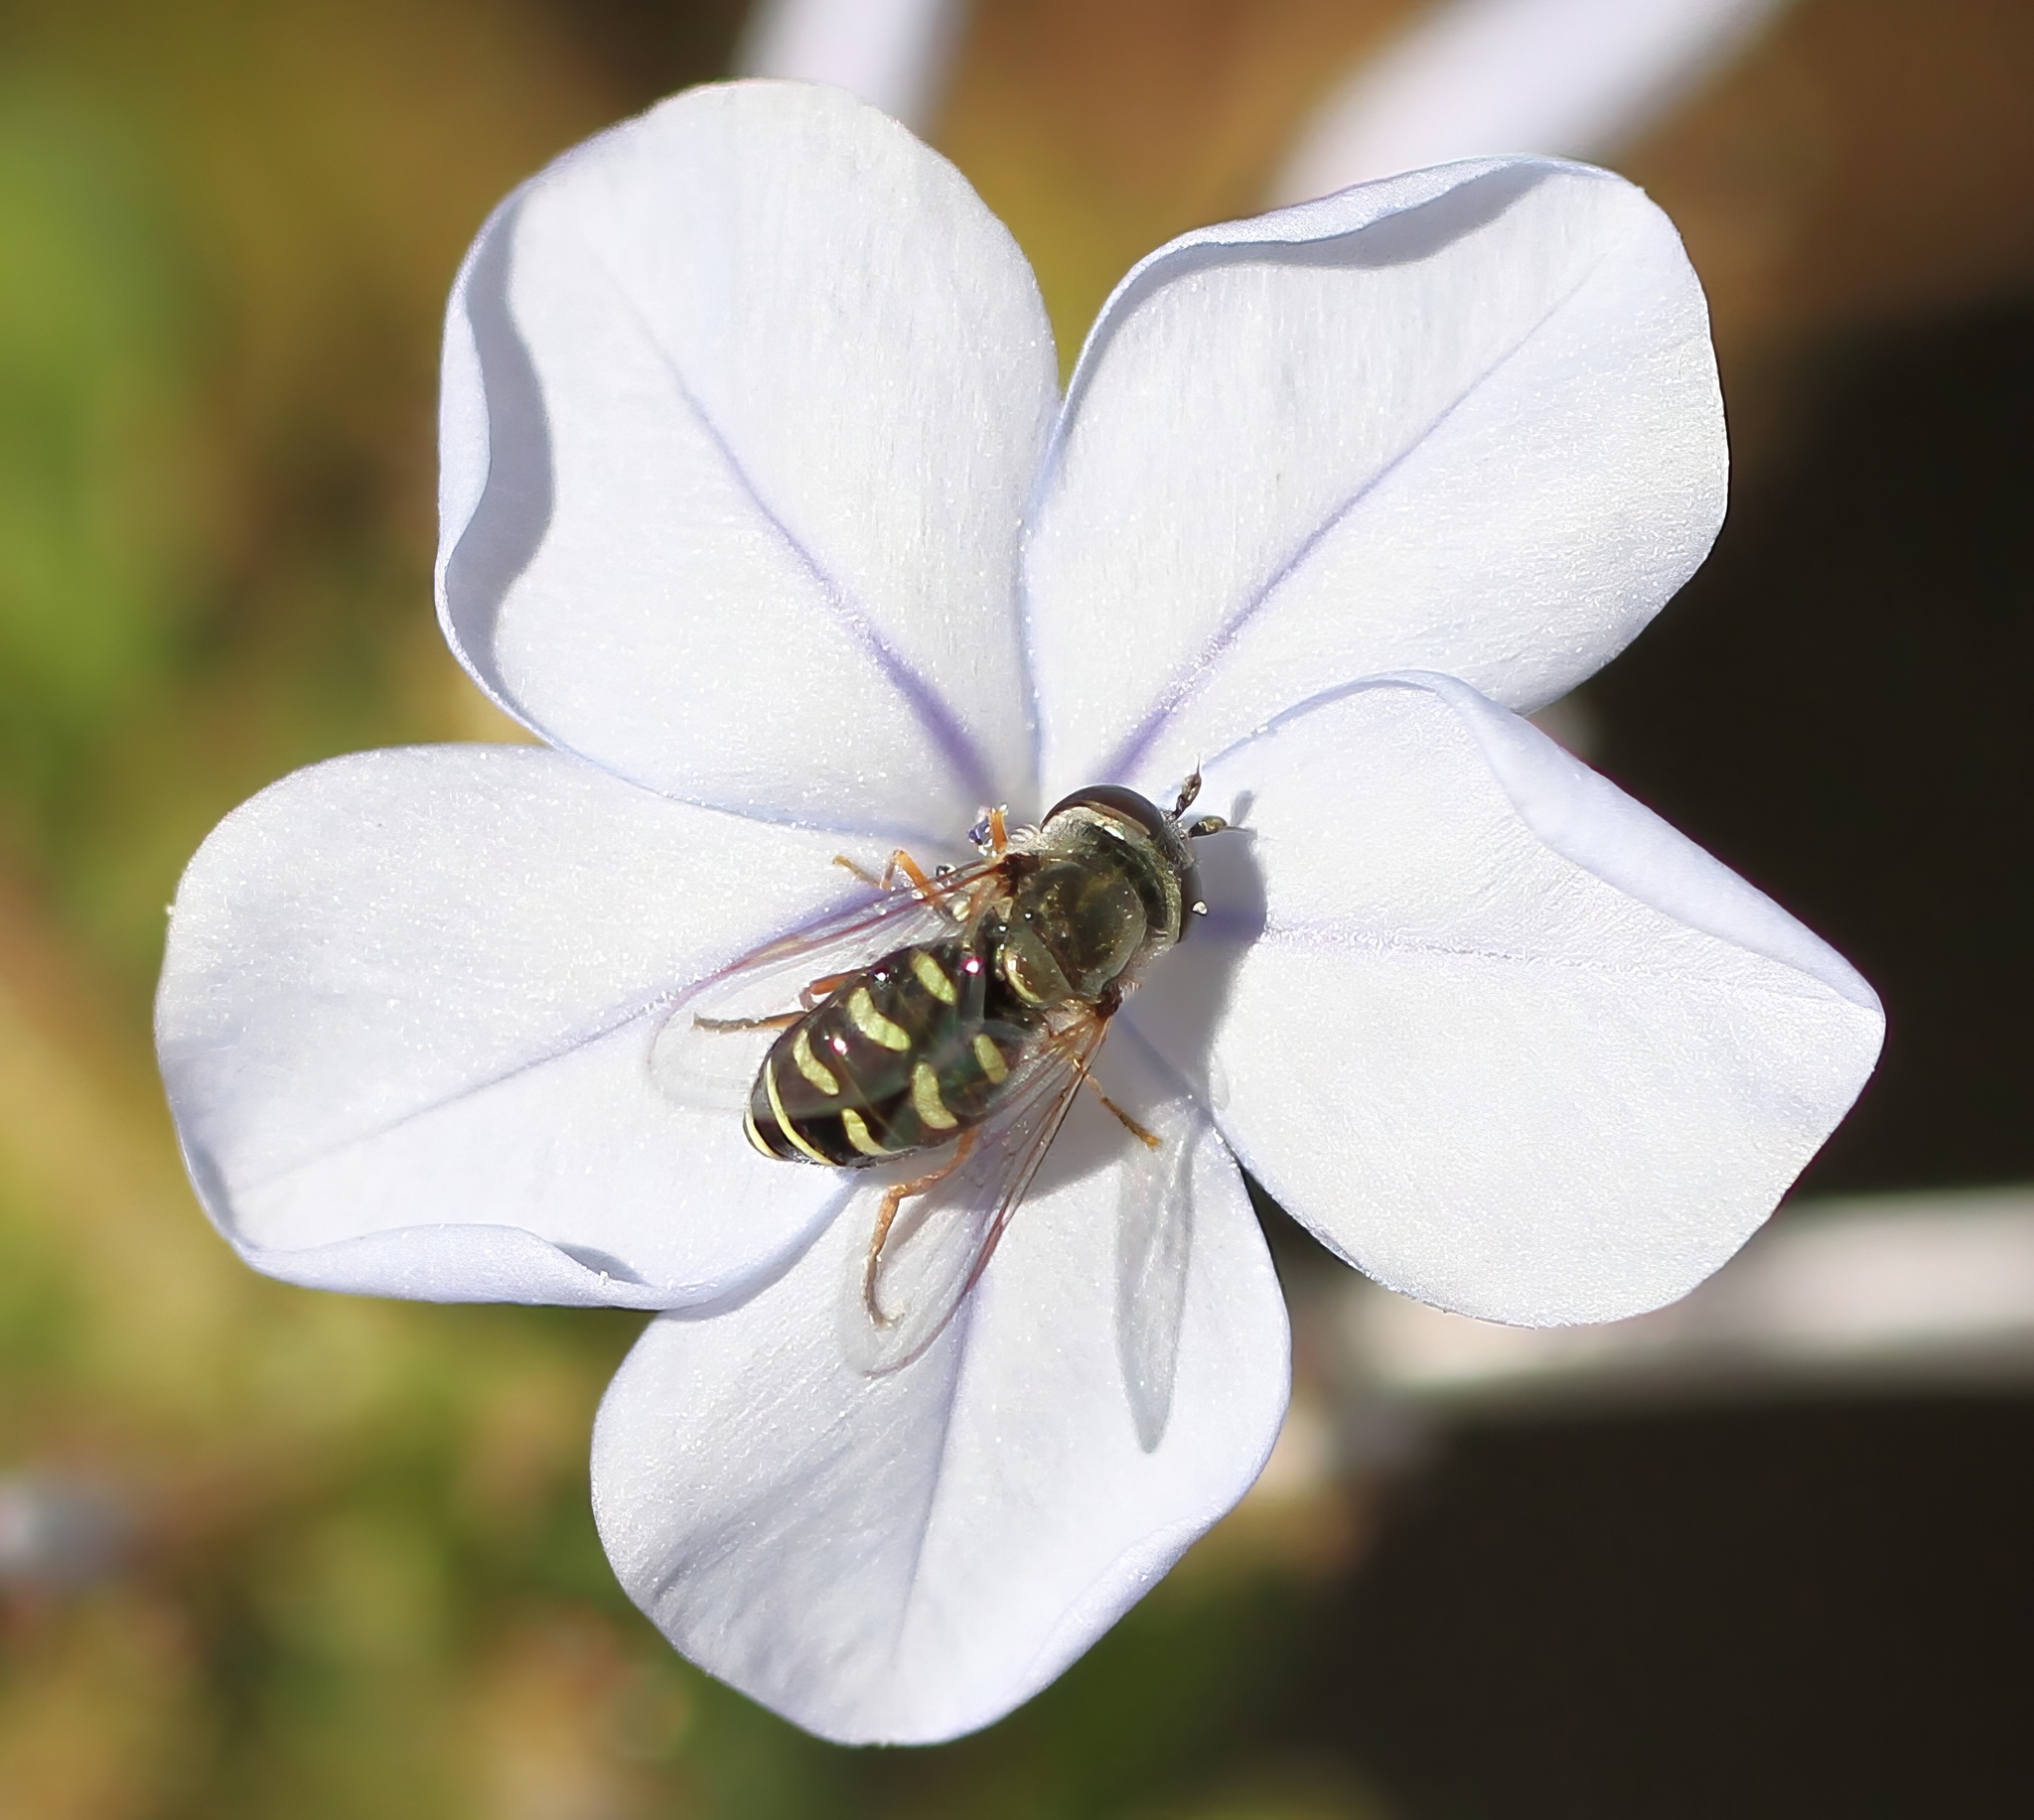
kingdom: Animalia
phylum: Arthropoda
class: Insecta
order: Diptera
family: Syrphidae
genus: Eupeodes
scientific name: Eupeodes volucris
